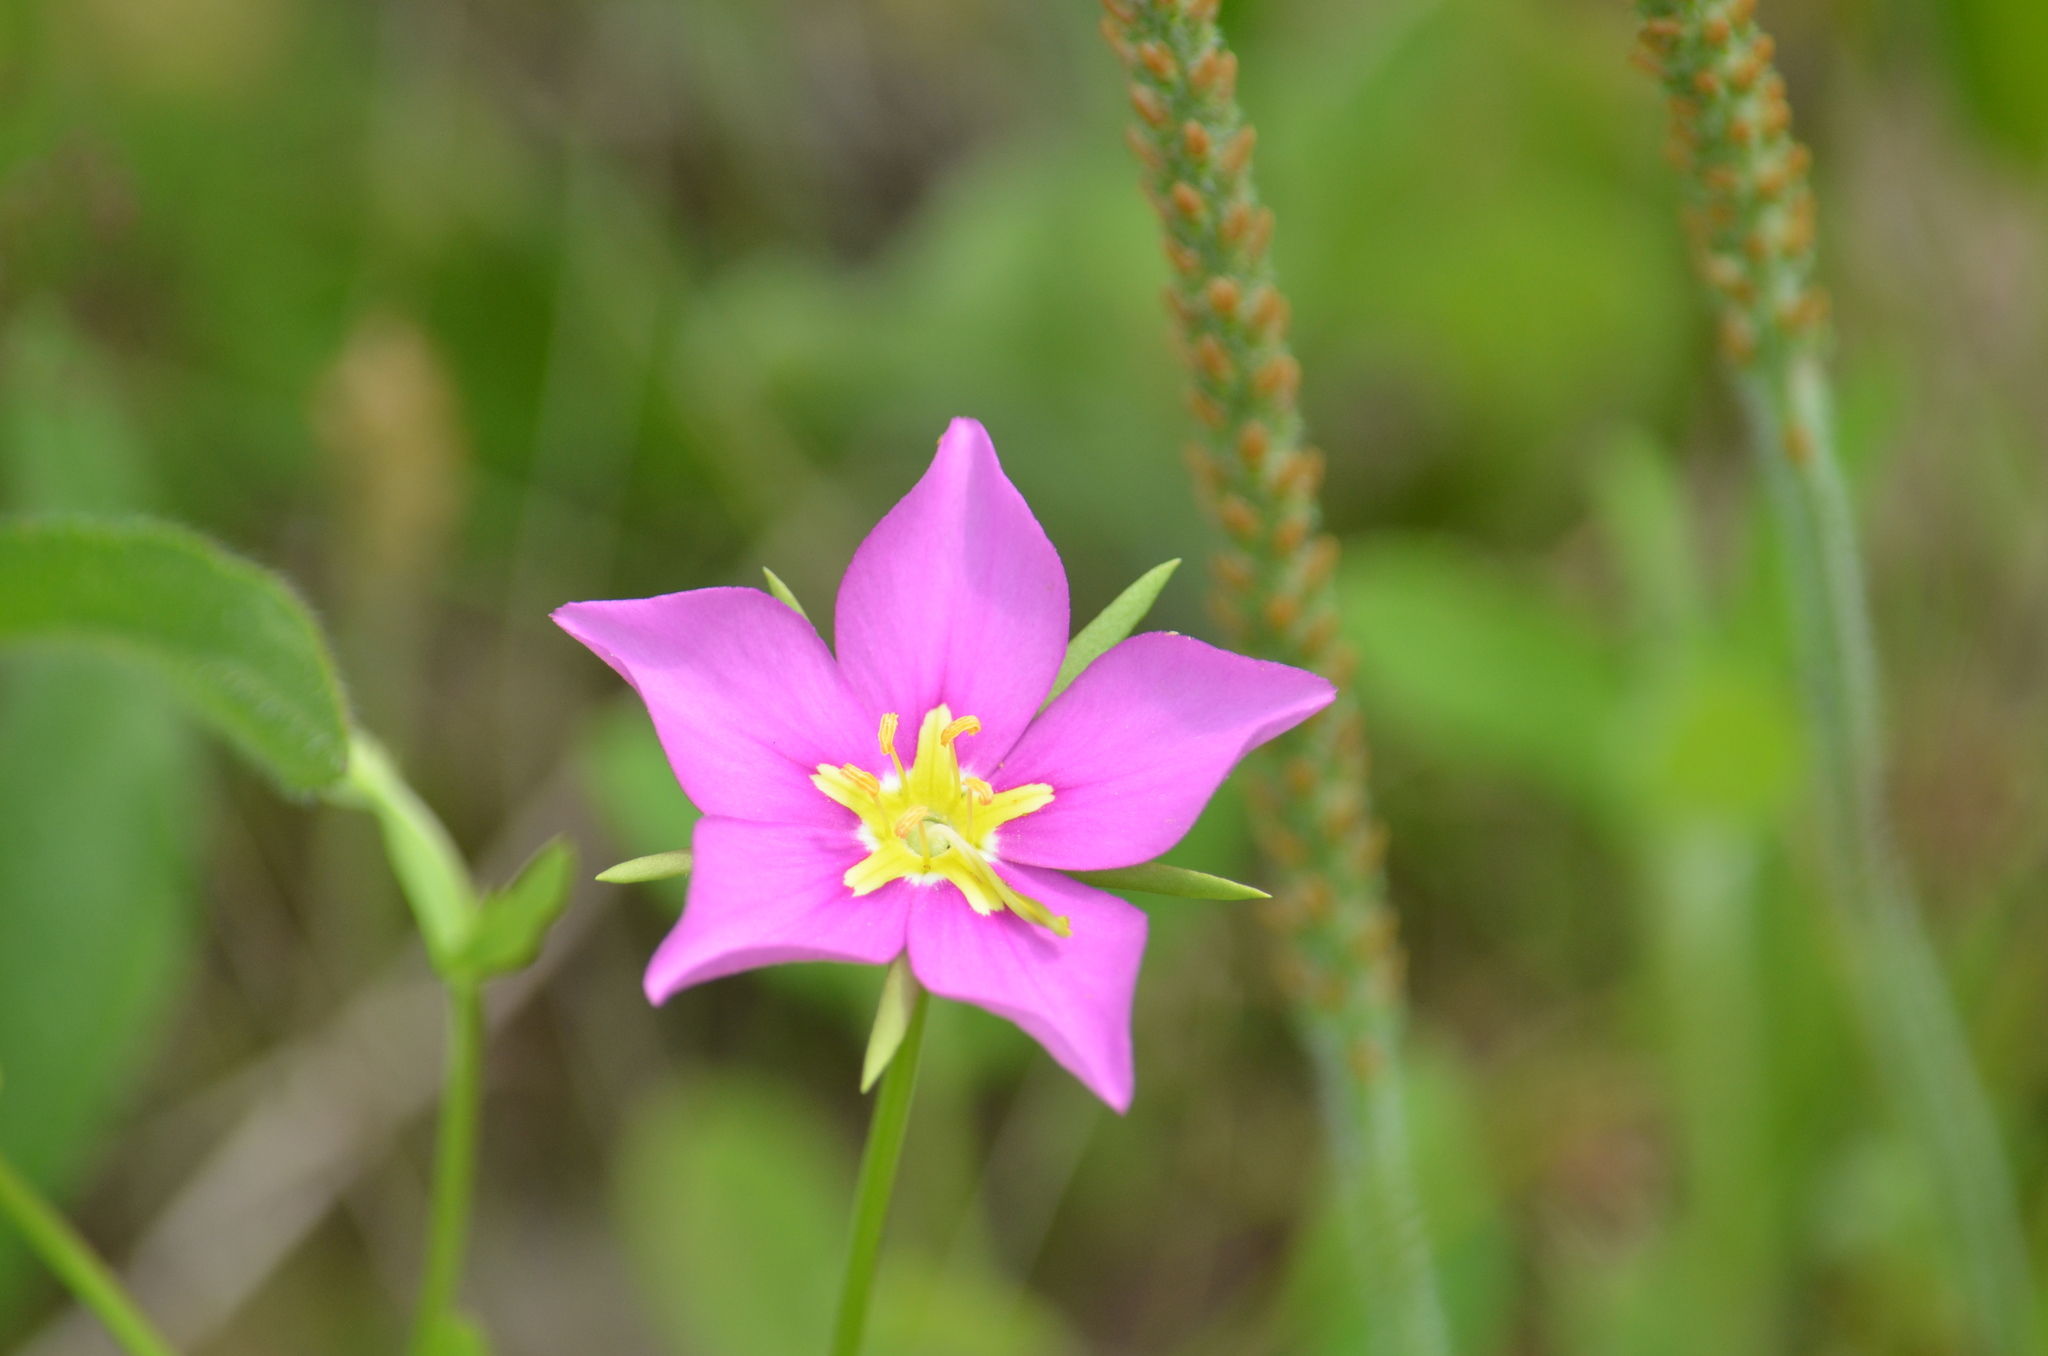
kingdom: Plantae
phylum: Tracheophyta
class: Magnoliopsida
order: Gentianales
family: Gentianaceae
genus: Sabatia
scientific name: Sabatia campestris
